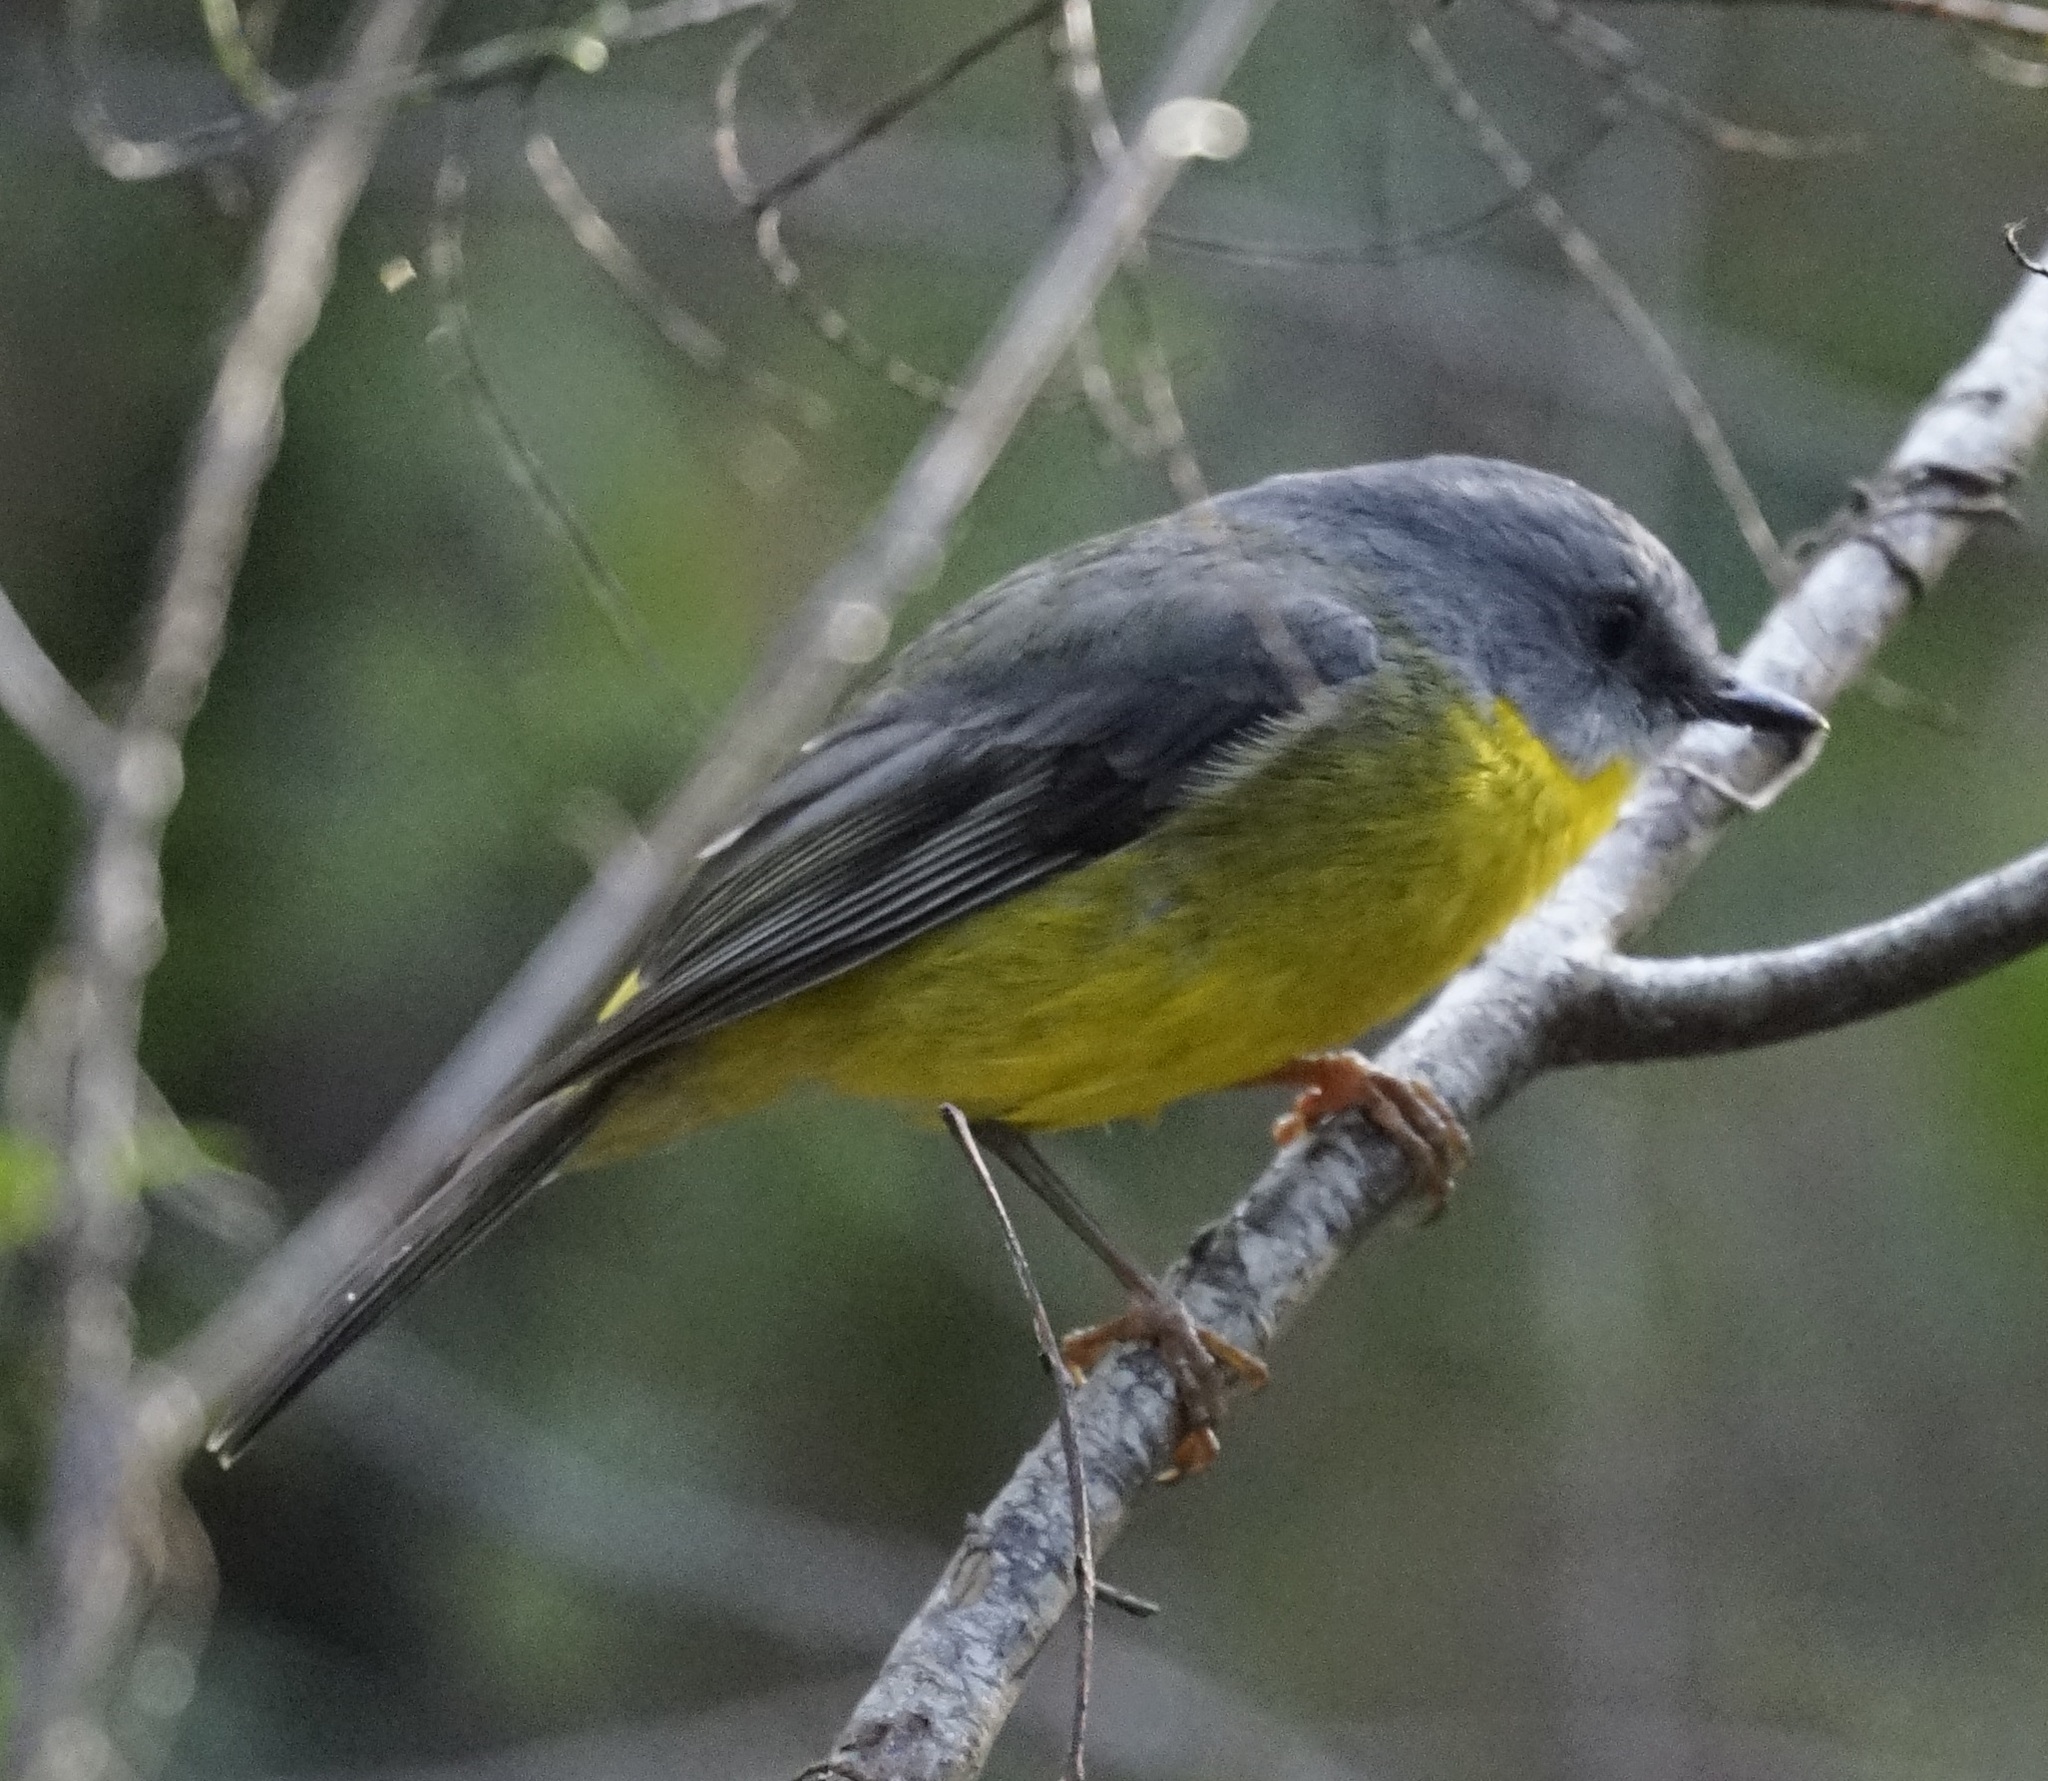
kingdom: Animalia
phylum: Chordata
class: Aves
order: Passeriformes
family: Petroicidae
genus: Eopsaltria
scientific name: Eopsaltria australis
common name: Eastern yellow robin
